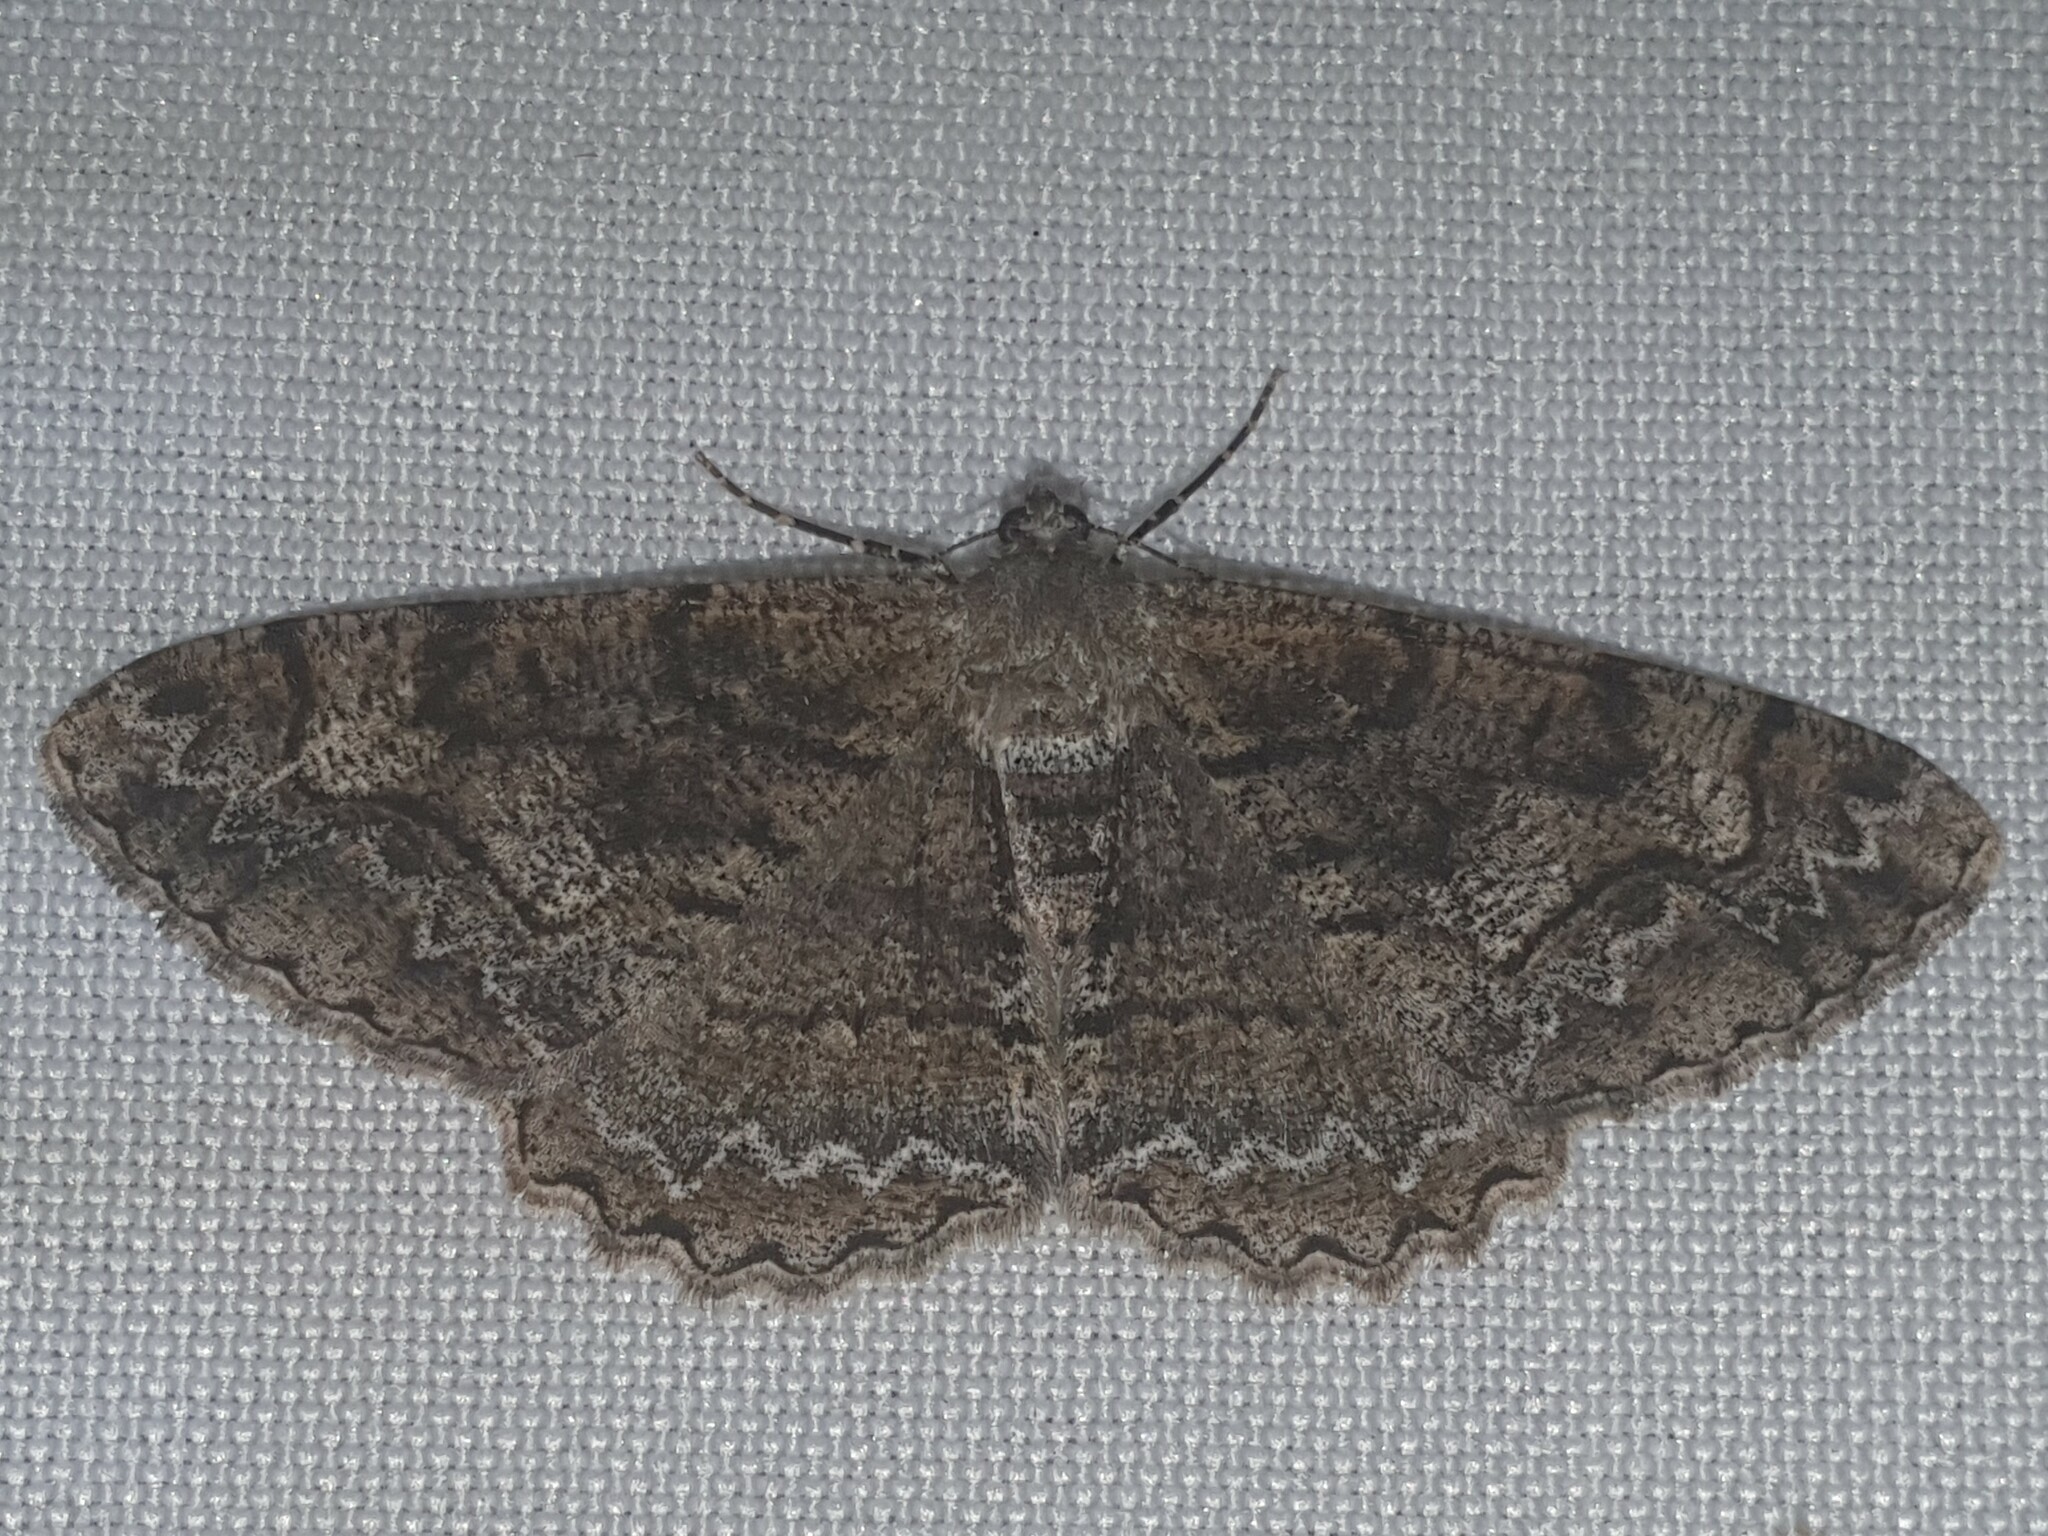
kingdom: Animalia
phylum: Arthropoda
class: Insecta
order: Lepidoptera
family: Geometridae
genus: Alcis
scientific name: Alcis repandata
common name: Mottled beauty
